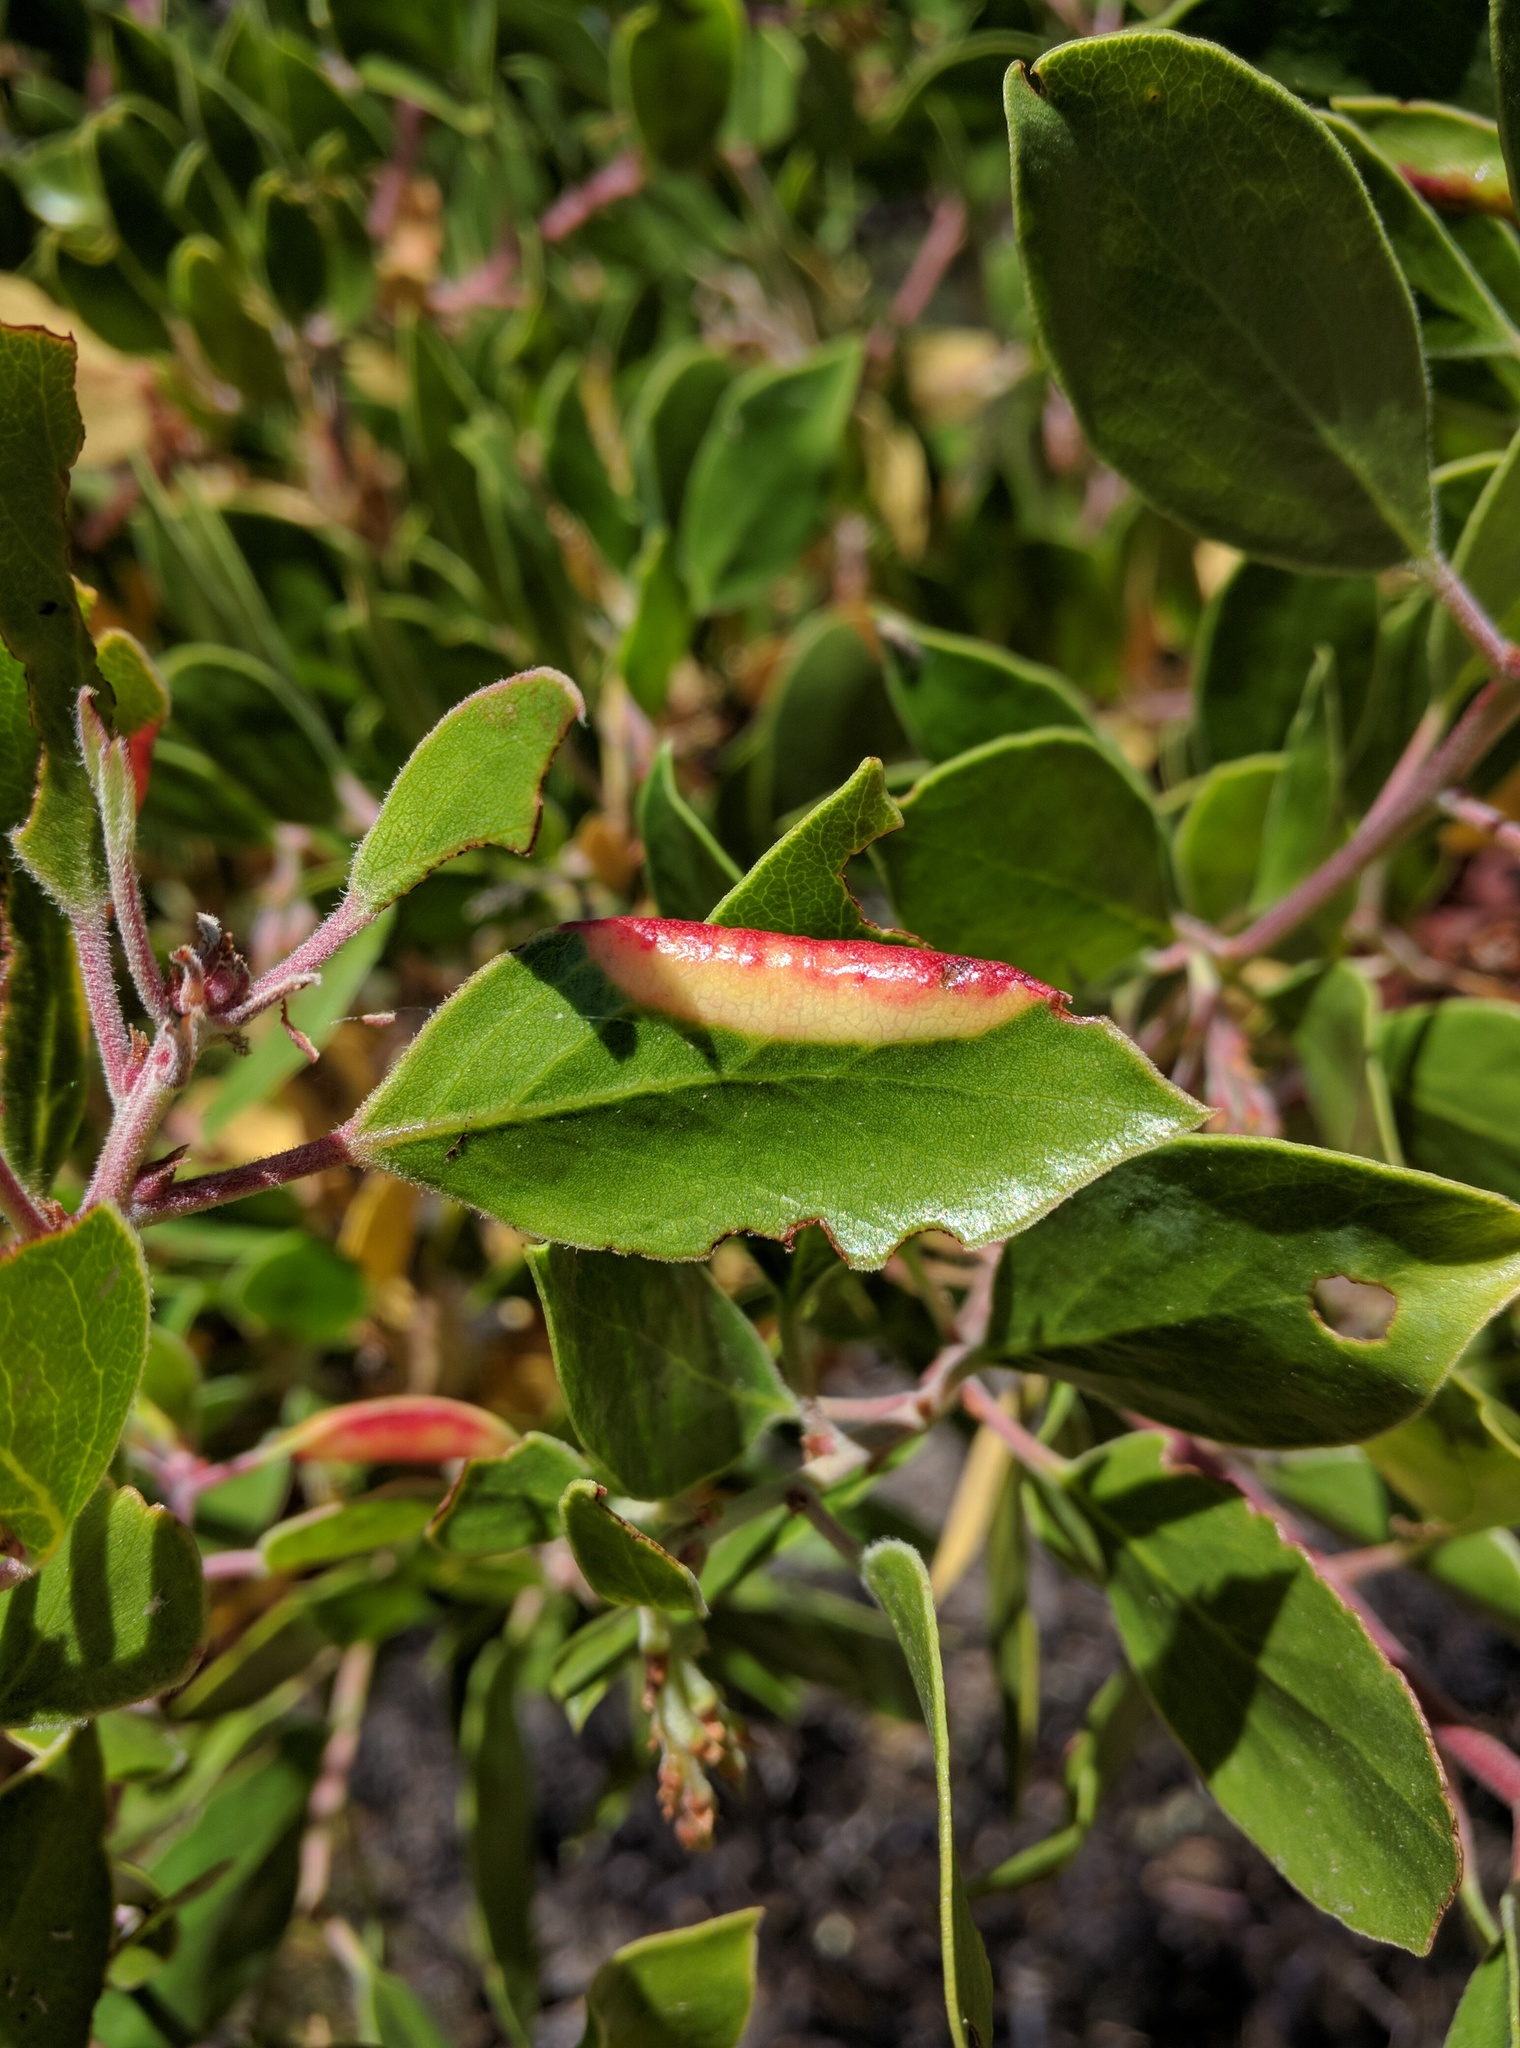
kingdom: Animalia
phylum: Arthropoda
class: Insecta
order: Hemiptera
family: Aphididae
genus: Tamalia
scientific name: Tamalia coweni
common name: Manzanita leafgall aphid
